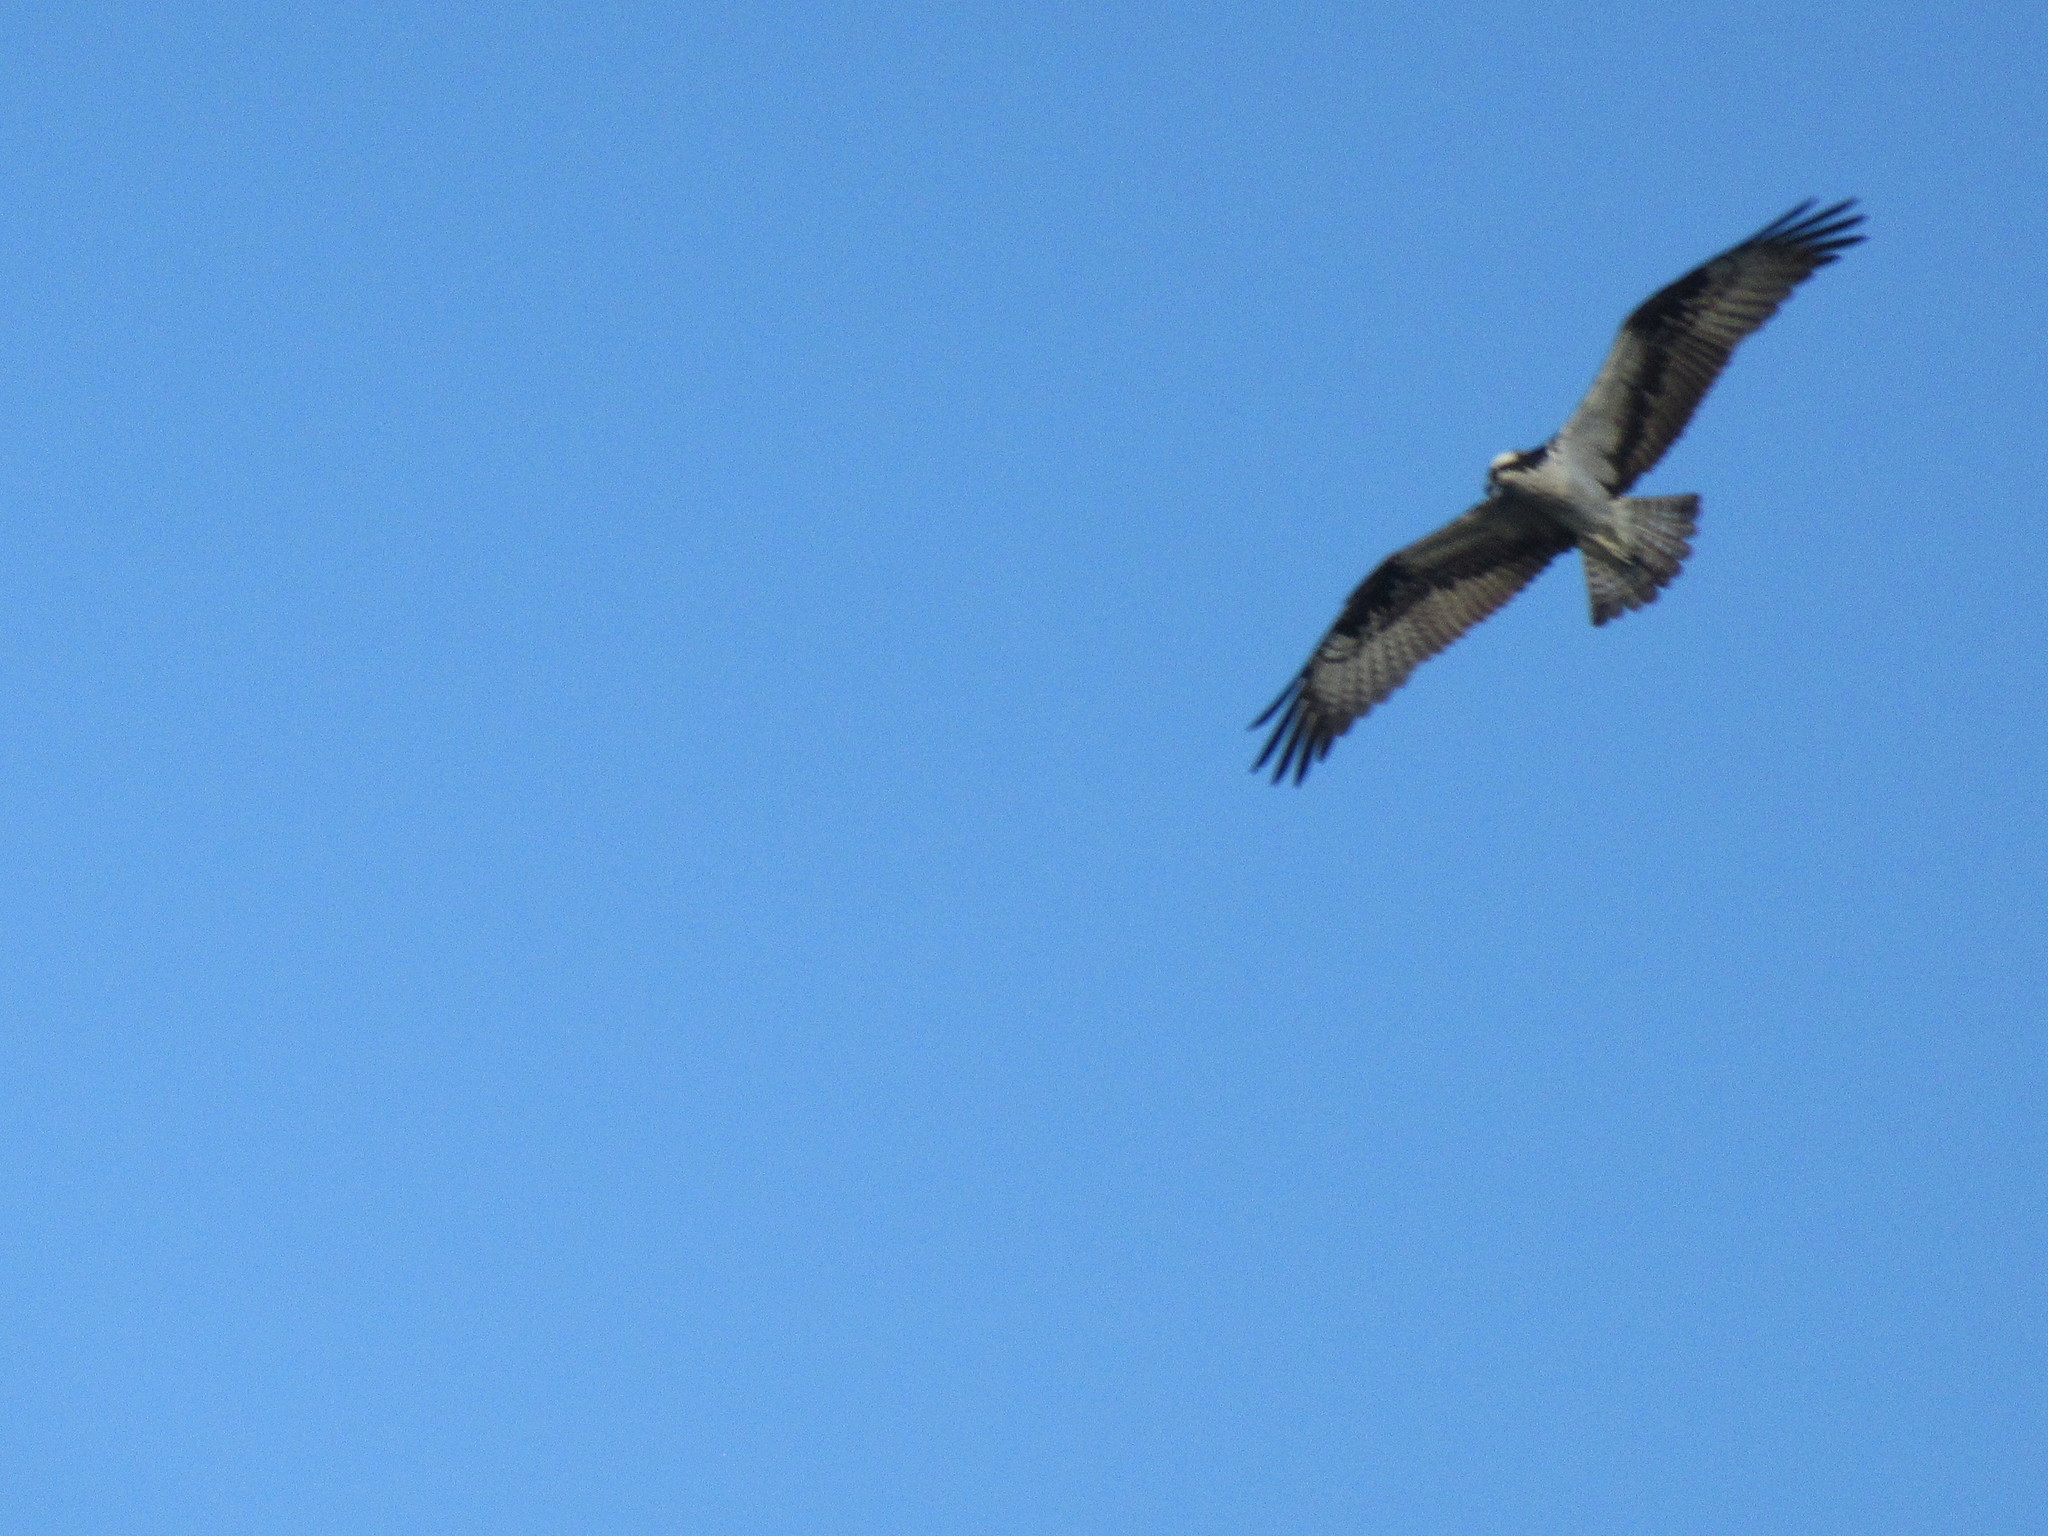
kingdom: Animalia
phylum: Chordata
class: Aves
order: Accipitriformes
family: Pandionidae
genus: Pandion
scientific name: Pandion haliaetus
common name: Osprey
